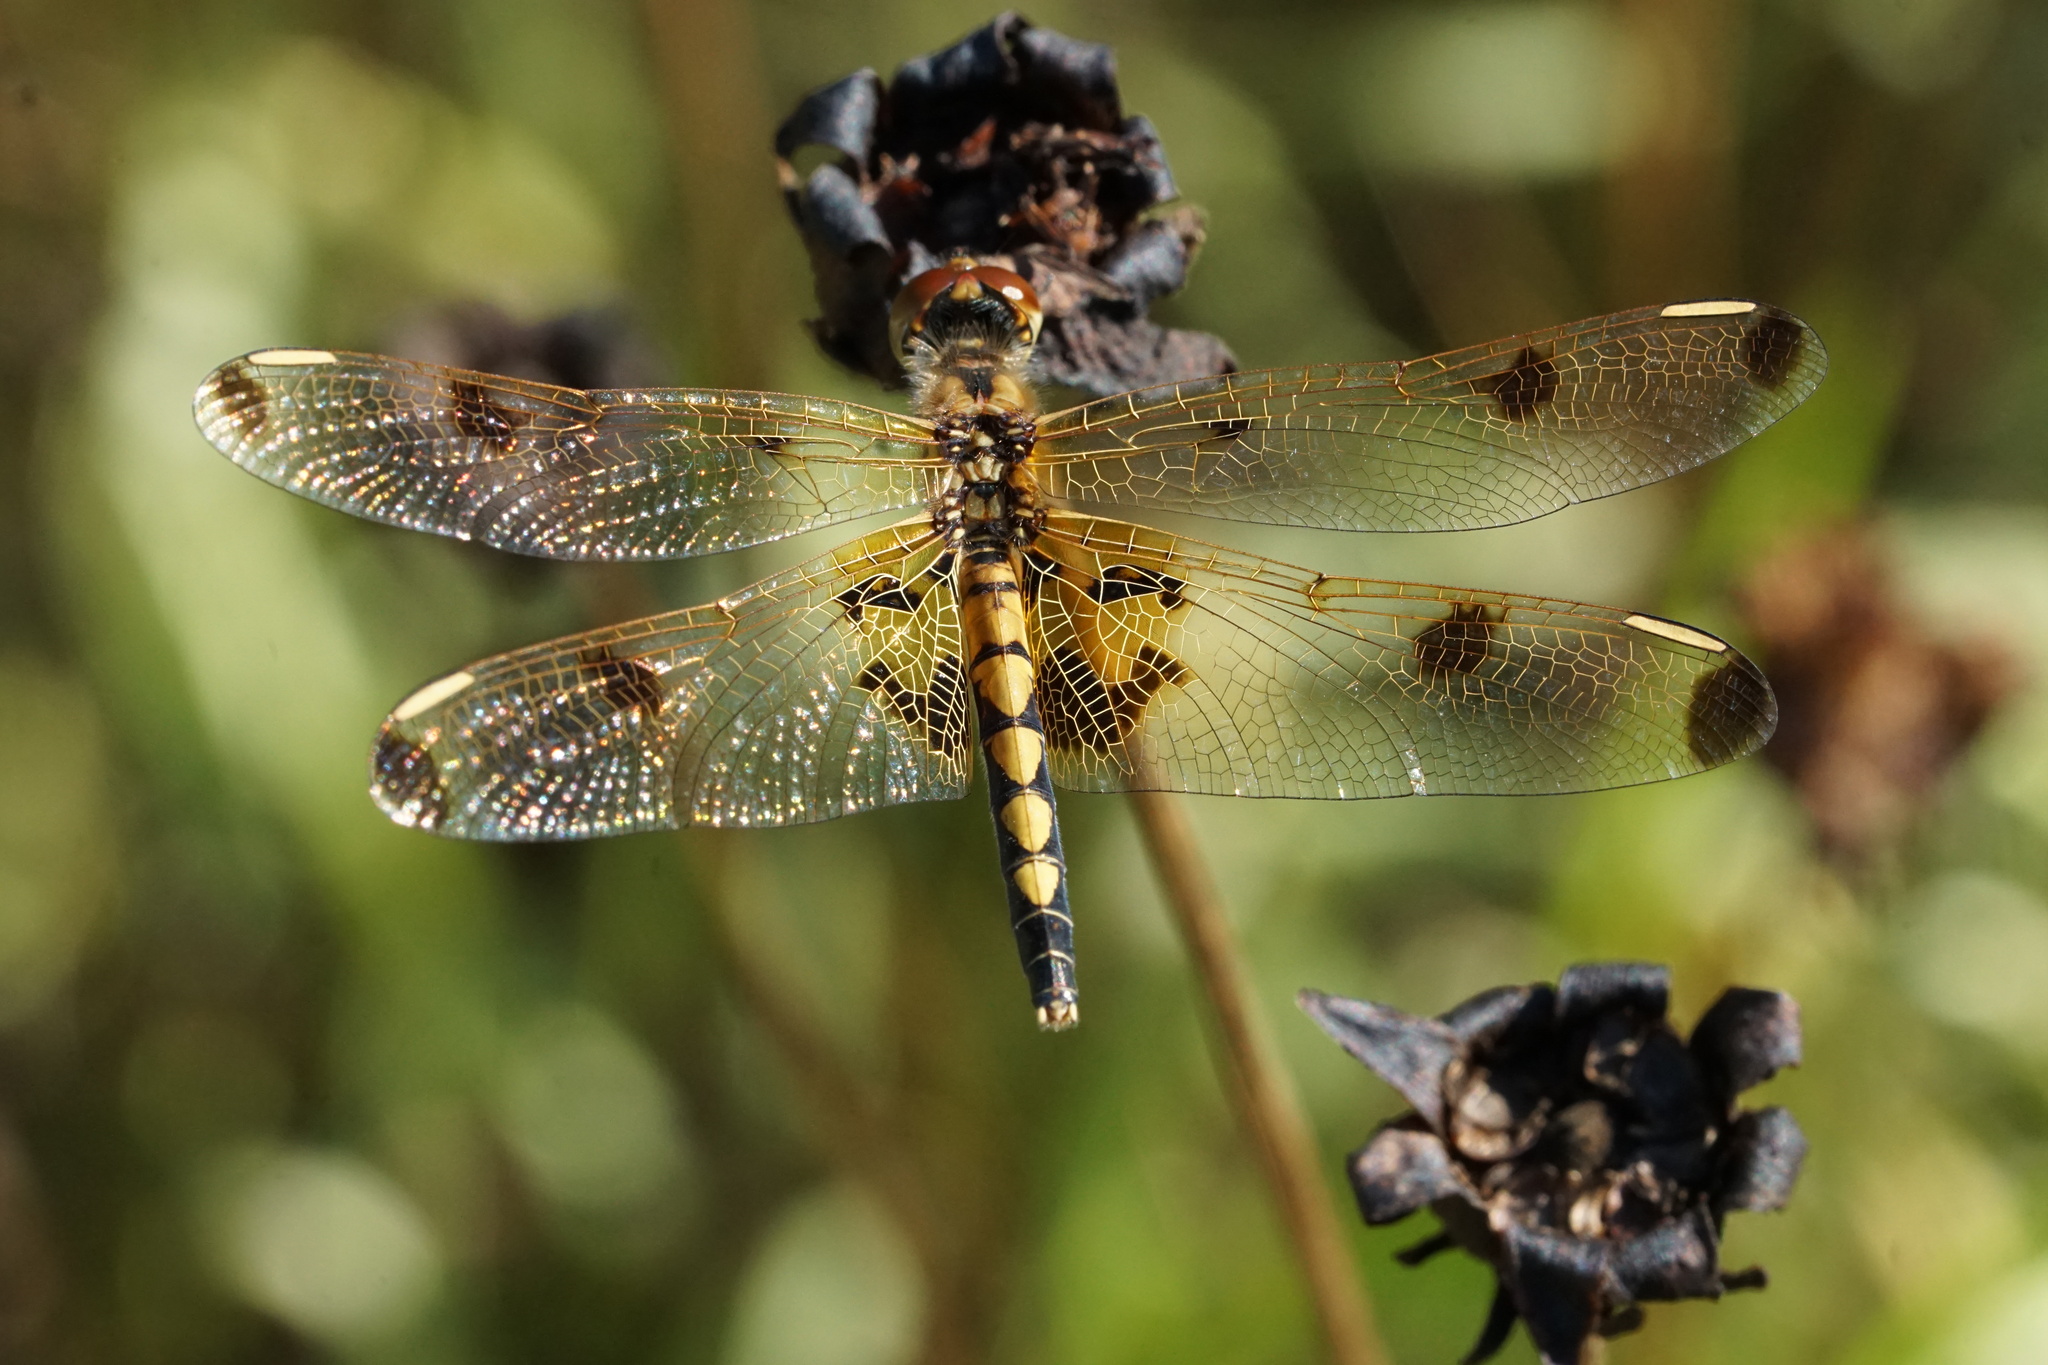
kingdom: Animalia
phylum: Arthropoda
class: Insecta
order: Odonata
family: Libellulidae
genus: Celithemis
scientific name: Celithemis elisa
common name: Calico pennant
